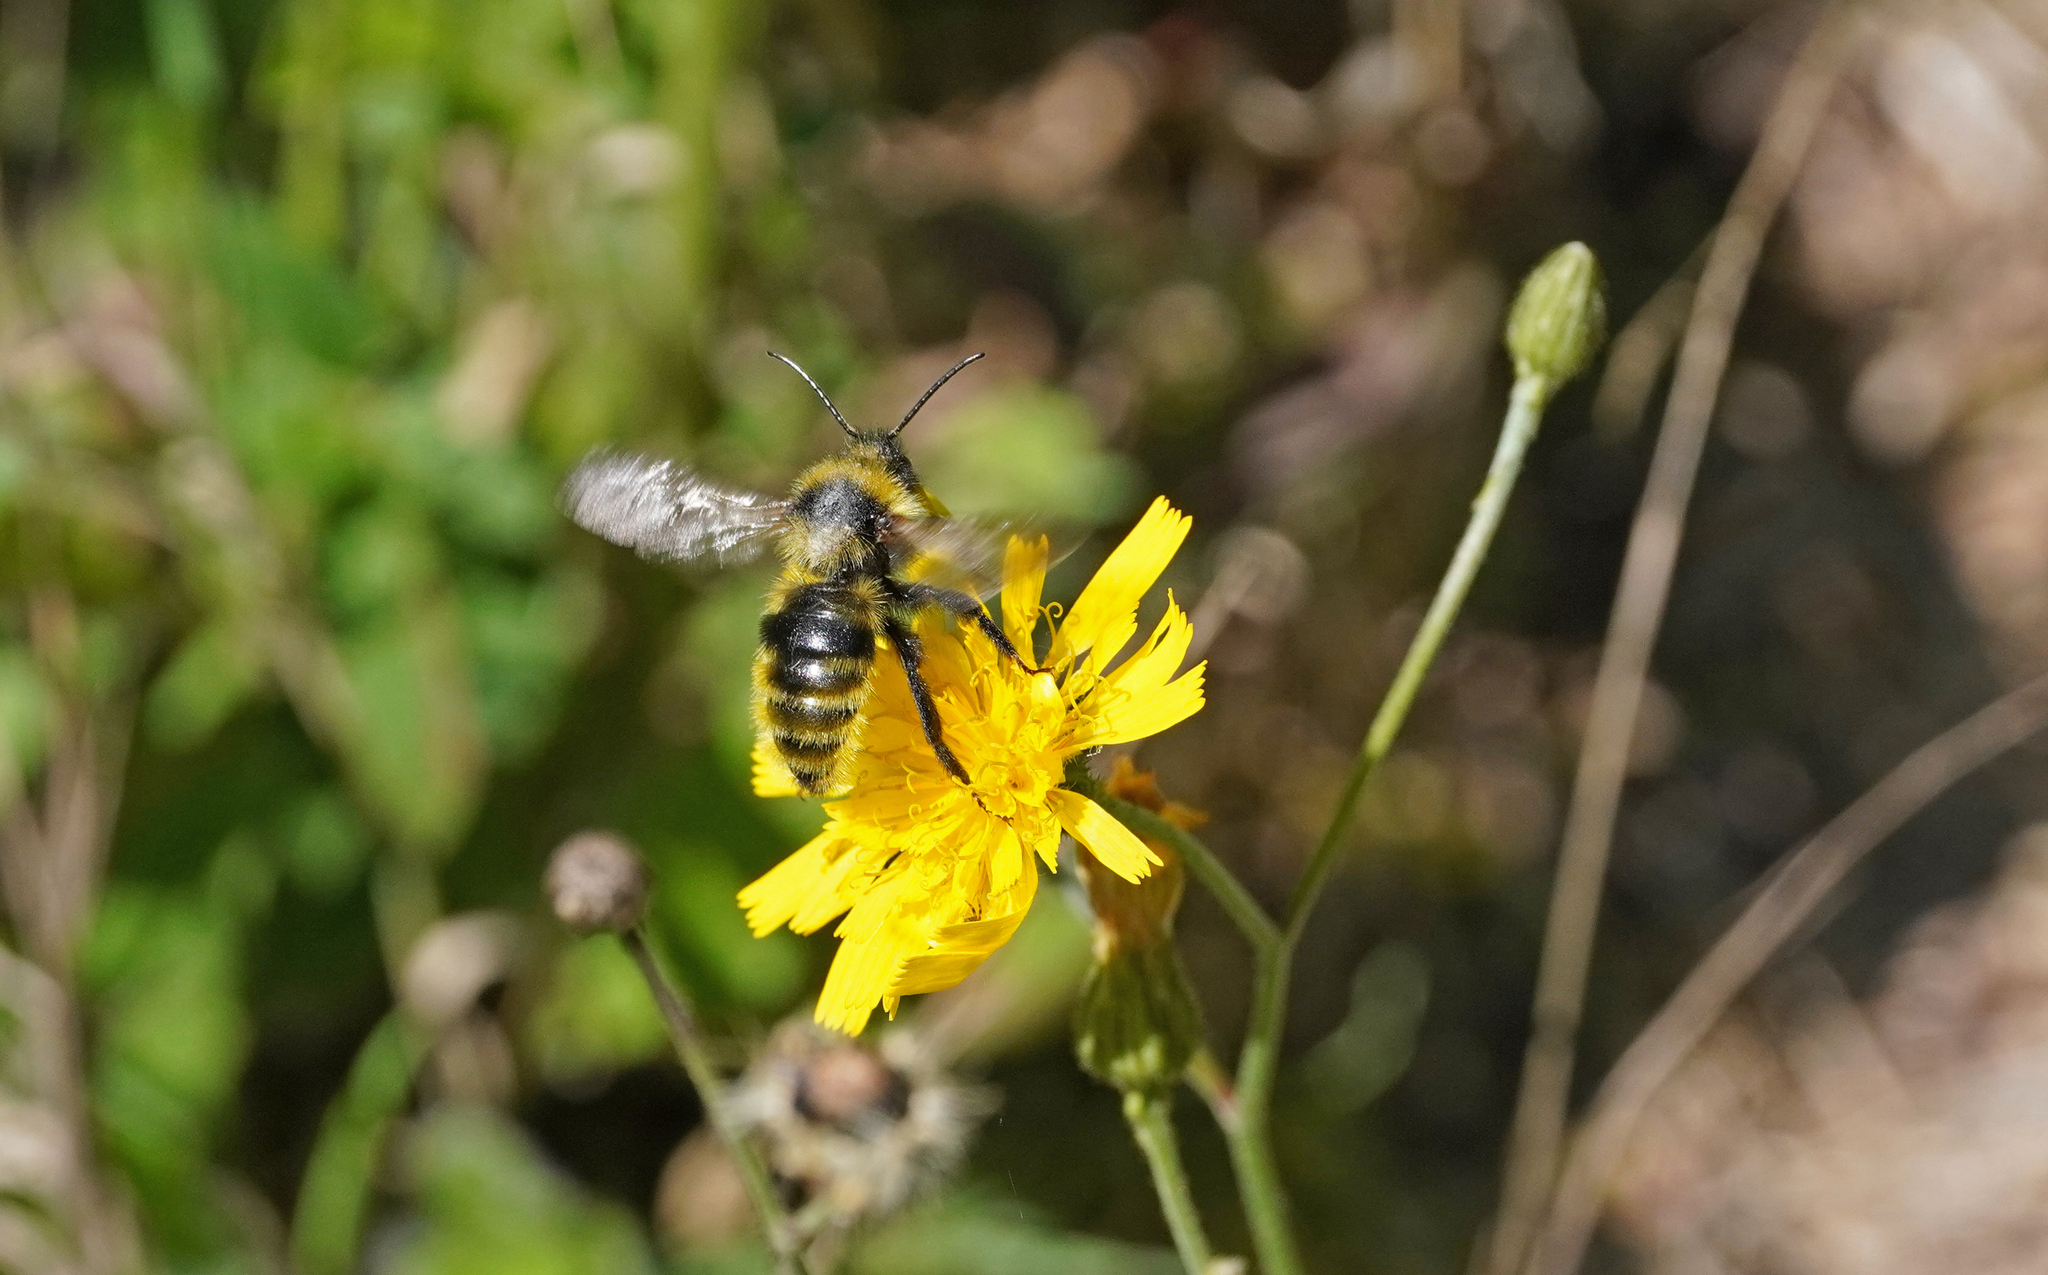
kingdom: Animalia
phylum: Arthropoda
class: Insecta
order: Hymenoptera
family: Apidae
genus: Bombus
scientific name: Bombus campestris
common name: Field cuckoo-bee
